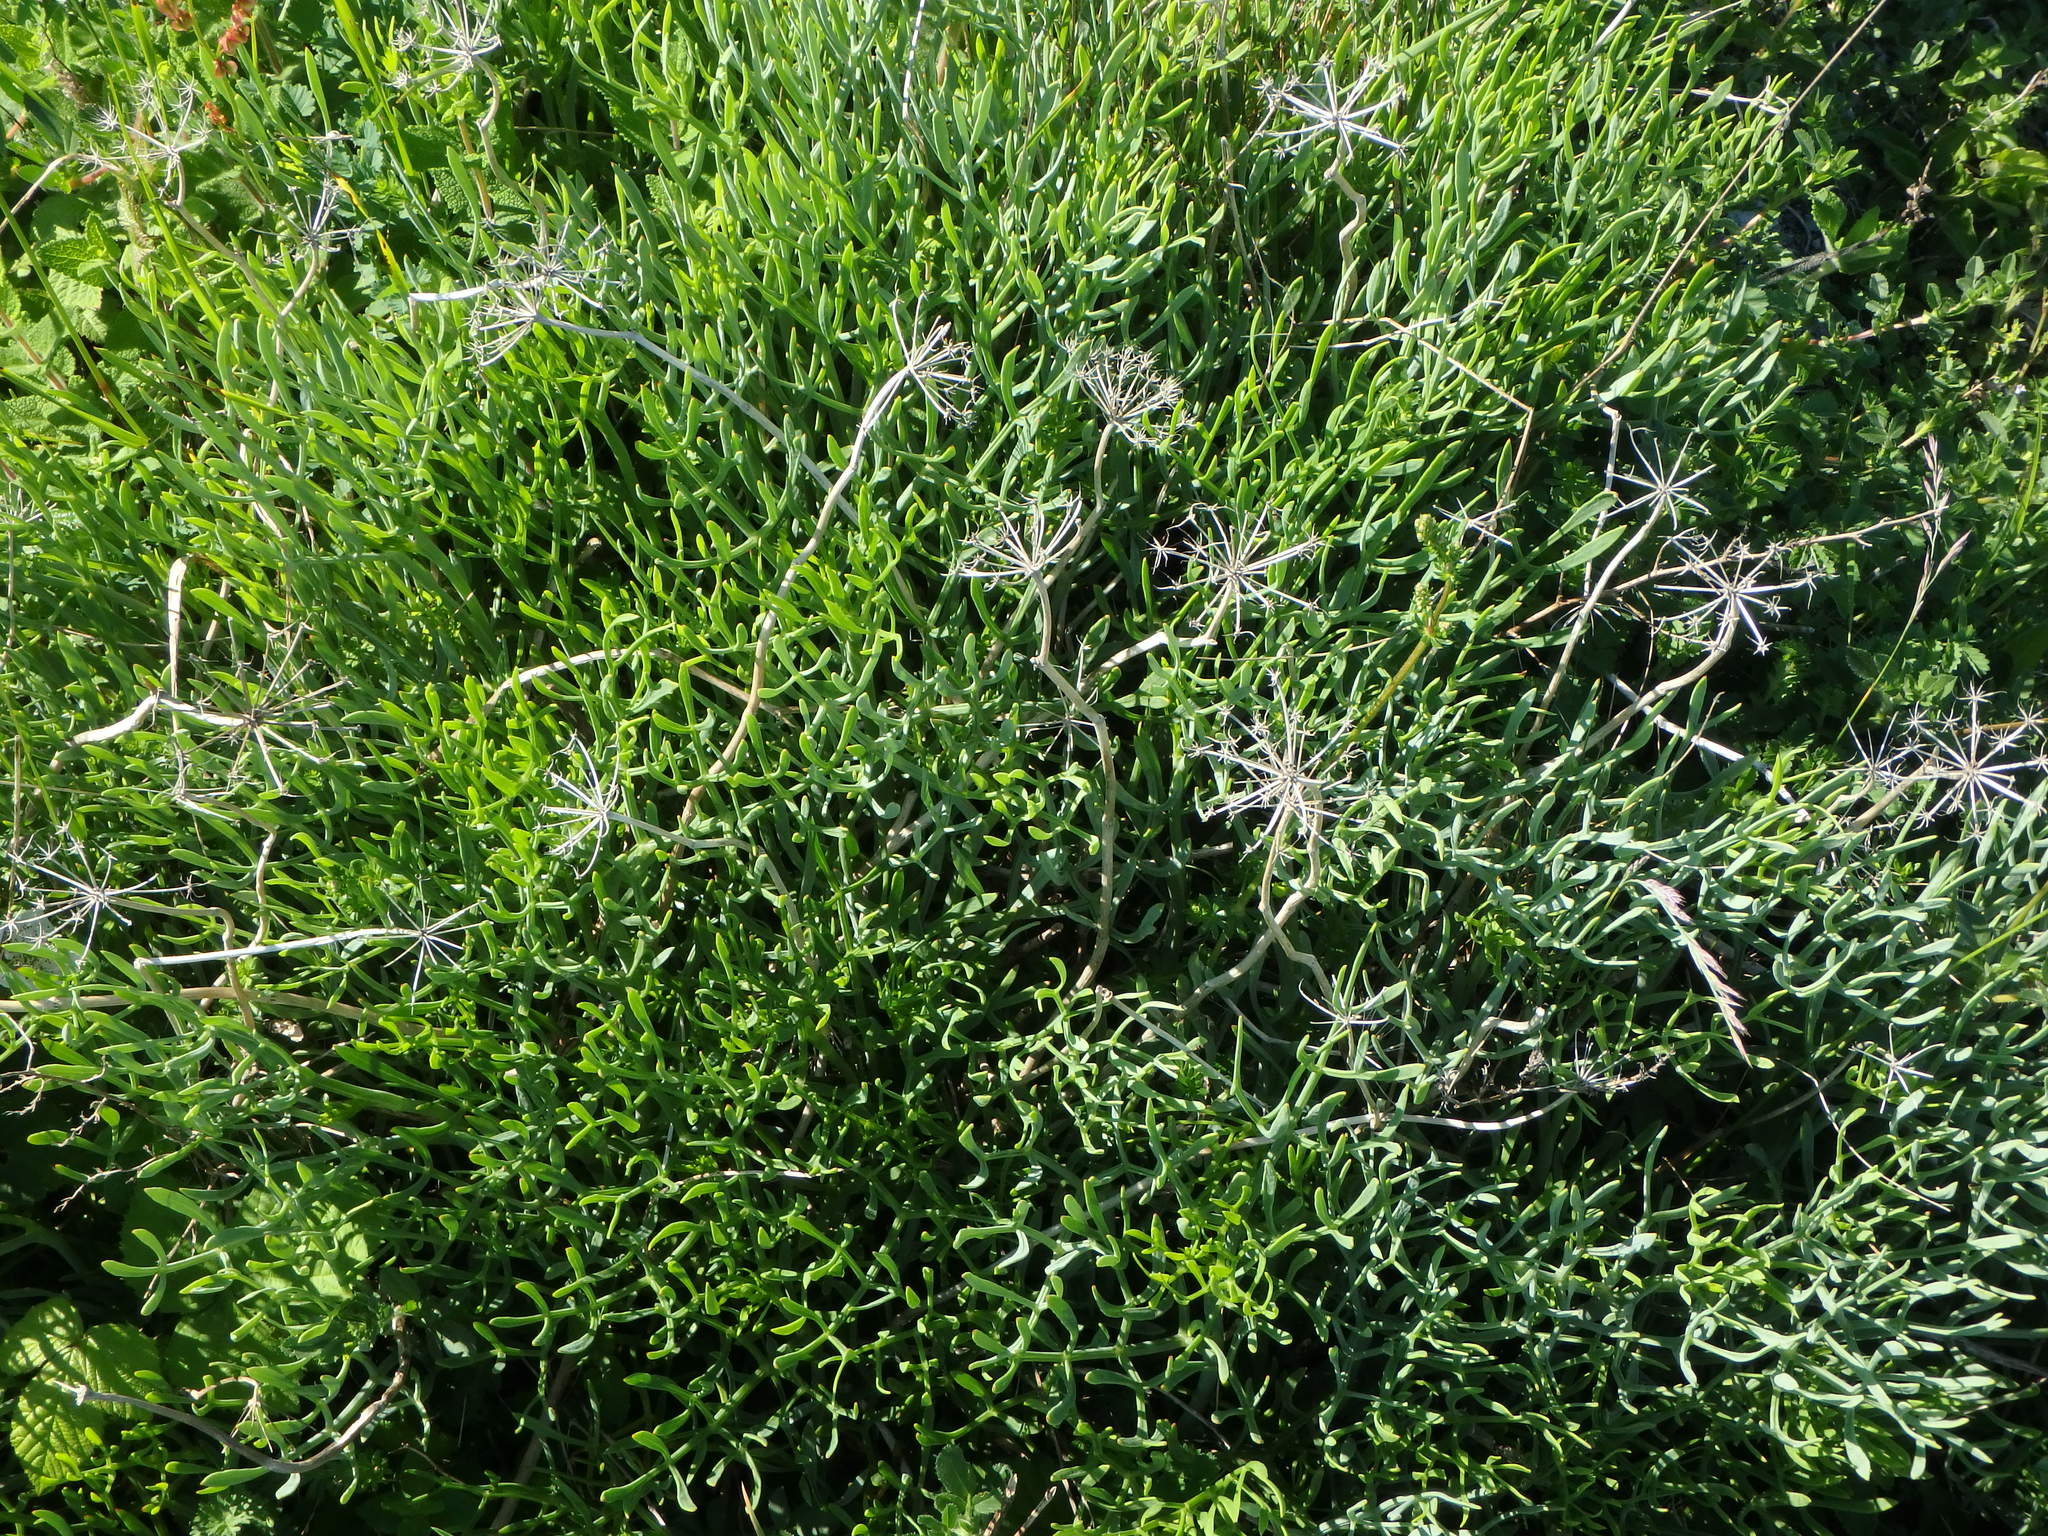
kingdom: Plantae
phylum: Tracheophyta
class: Magnoliopsida
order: Apiales
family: Apiaceae
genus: Crithmum
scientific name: Crithmum maritimum
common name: Rock samphire
